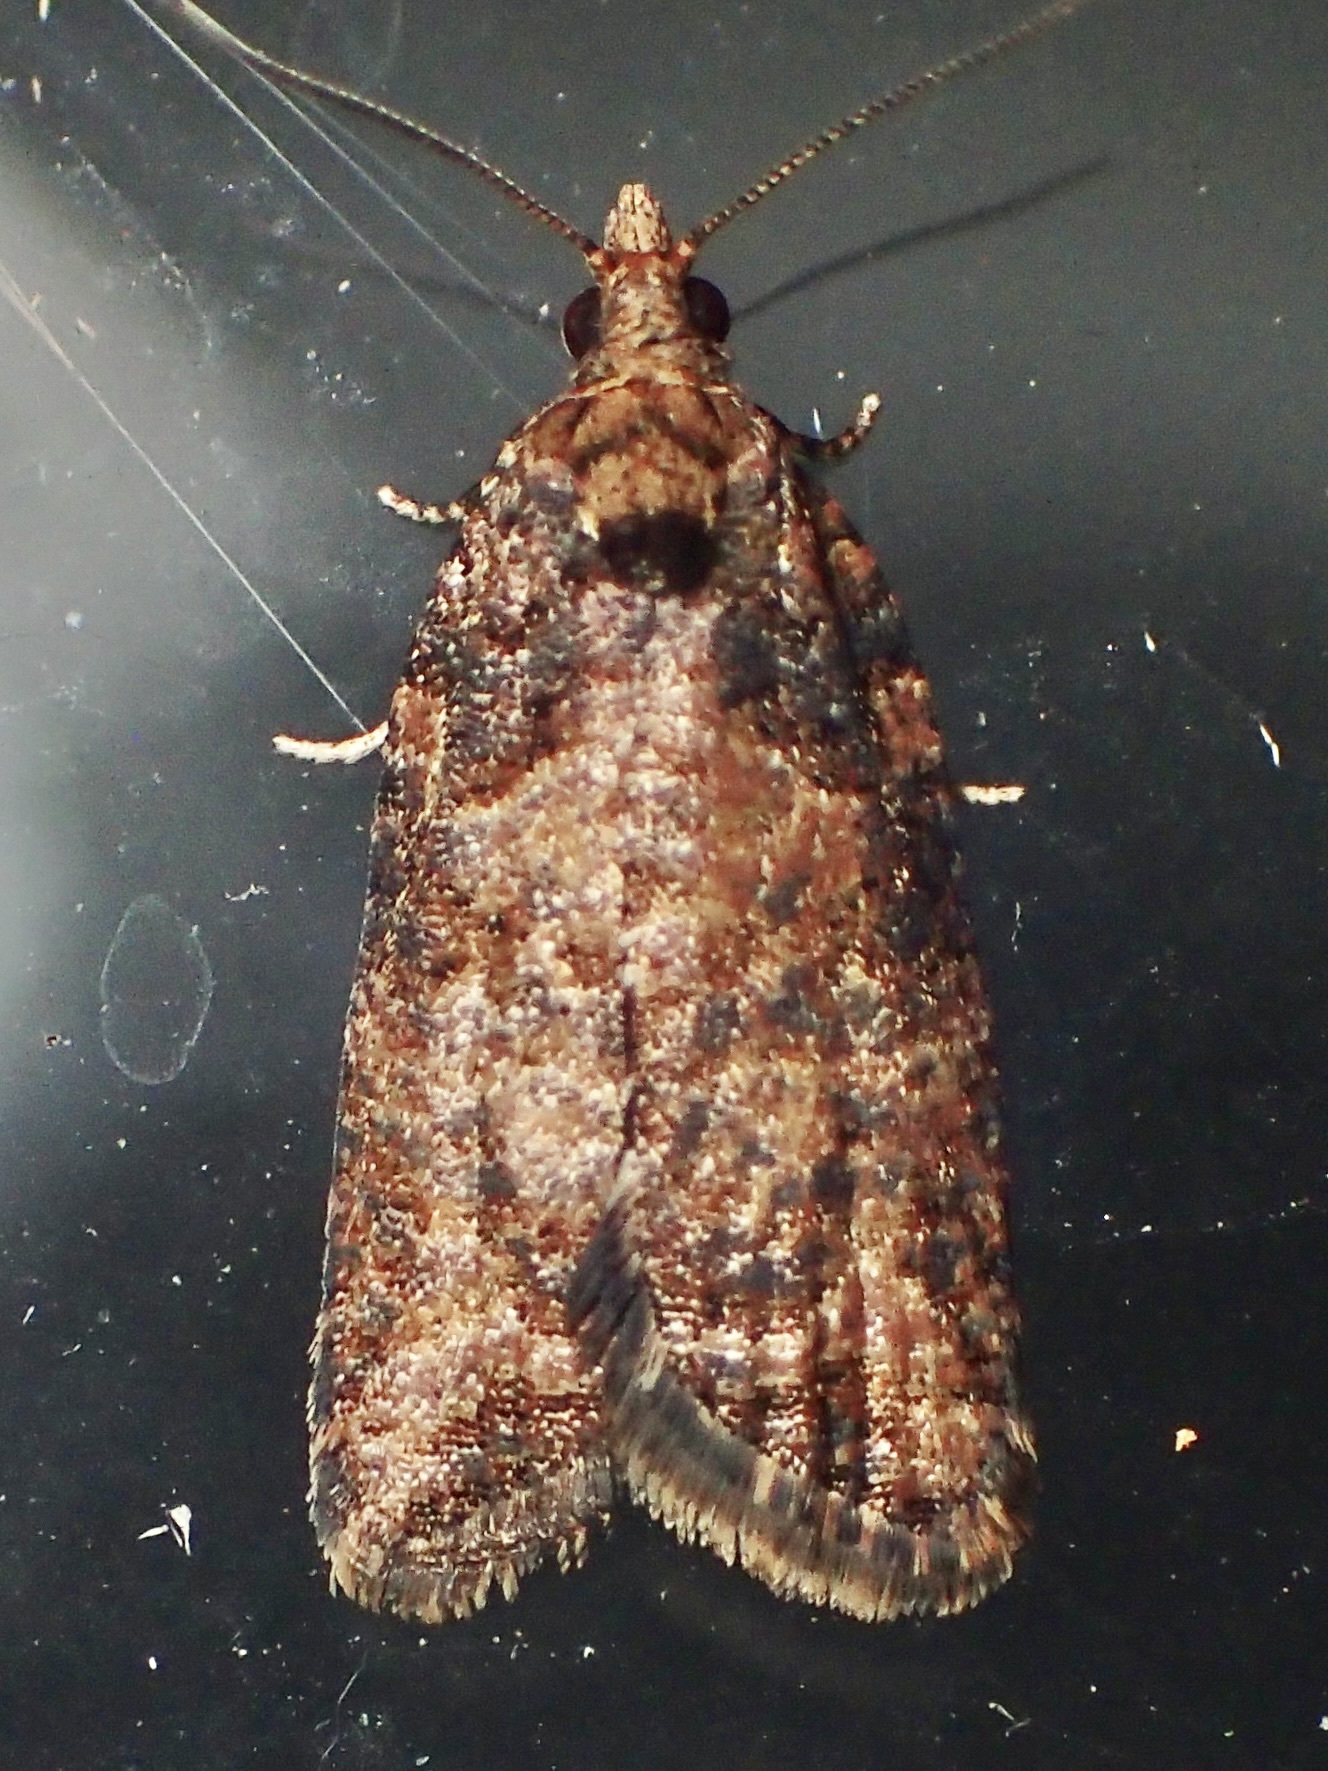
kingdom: Animalia
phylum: Arthropoda
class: Insecta
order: Lepidoptera
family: Tortricidae
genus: Capua
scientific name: Capua intractana
